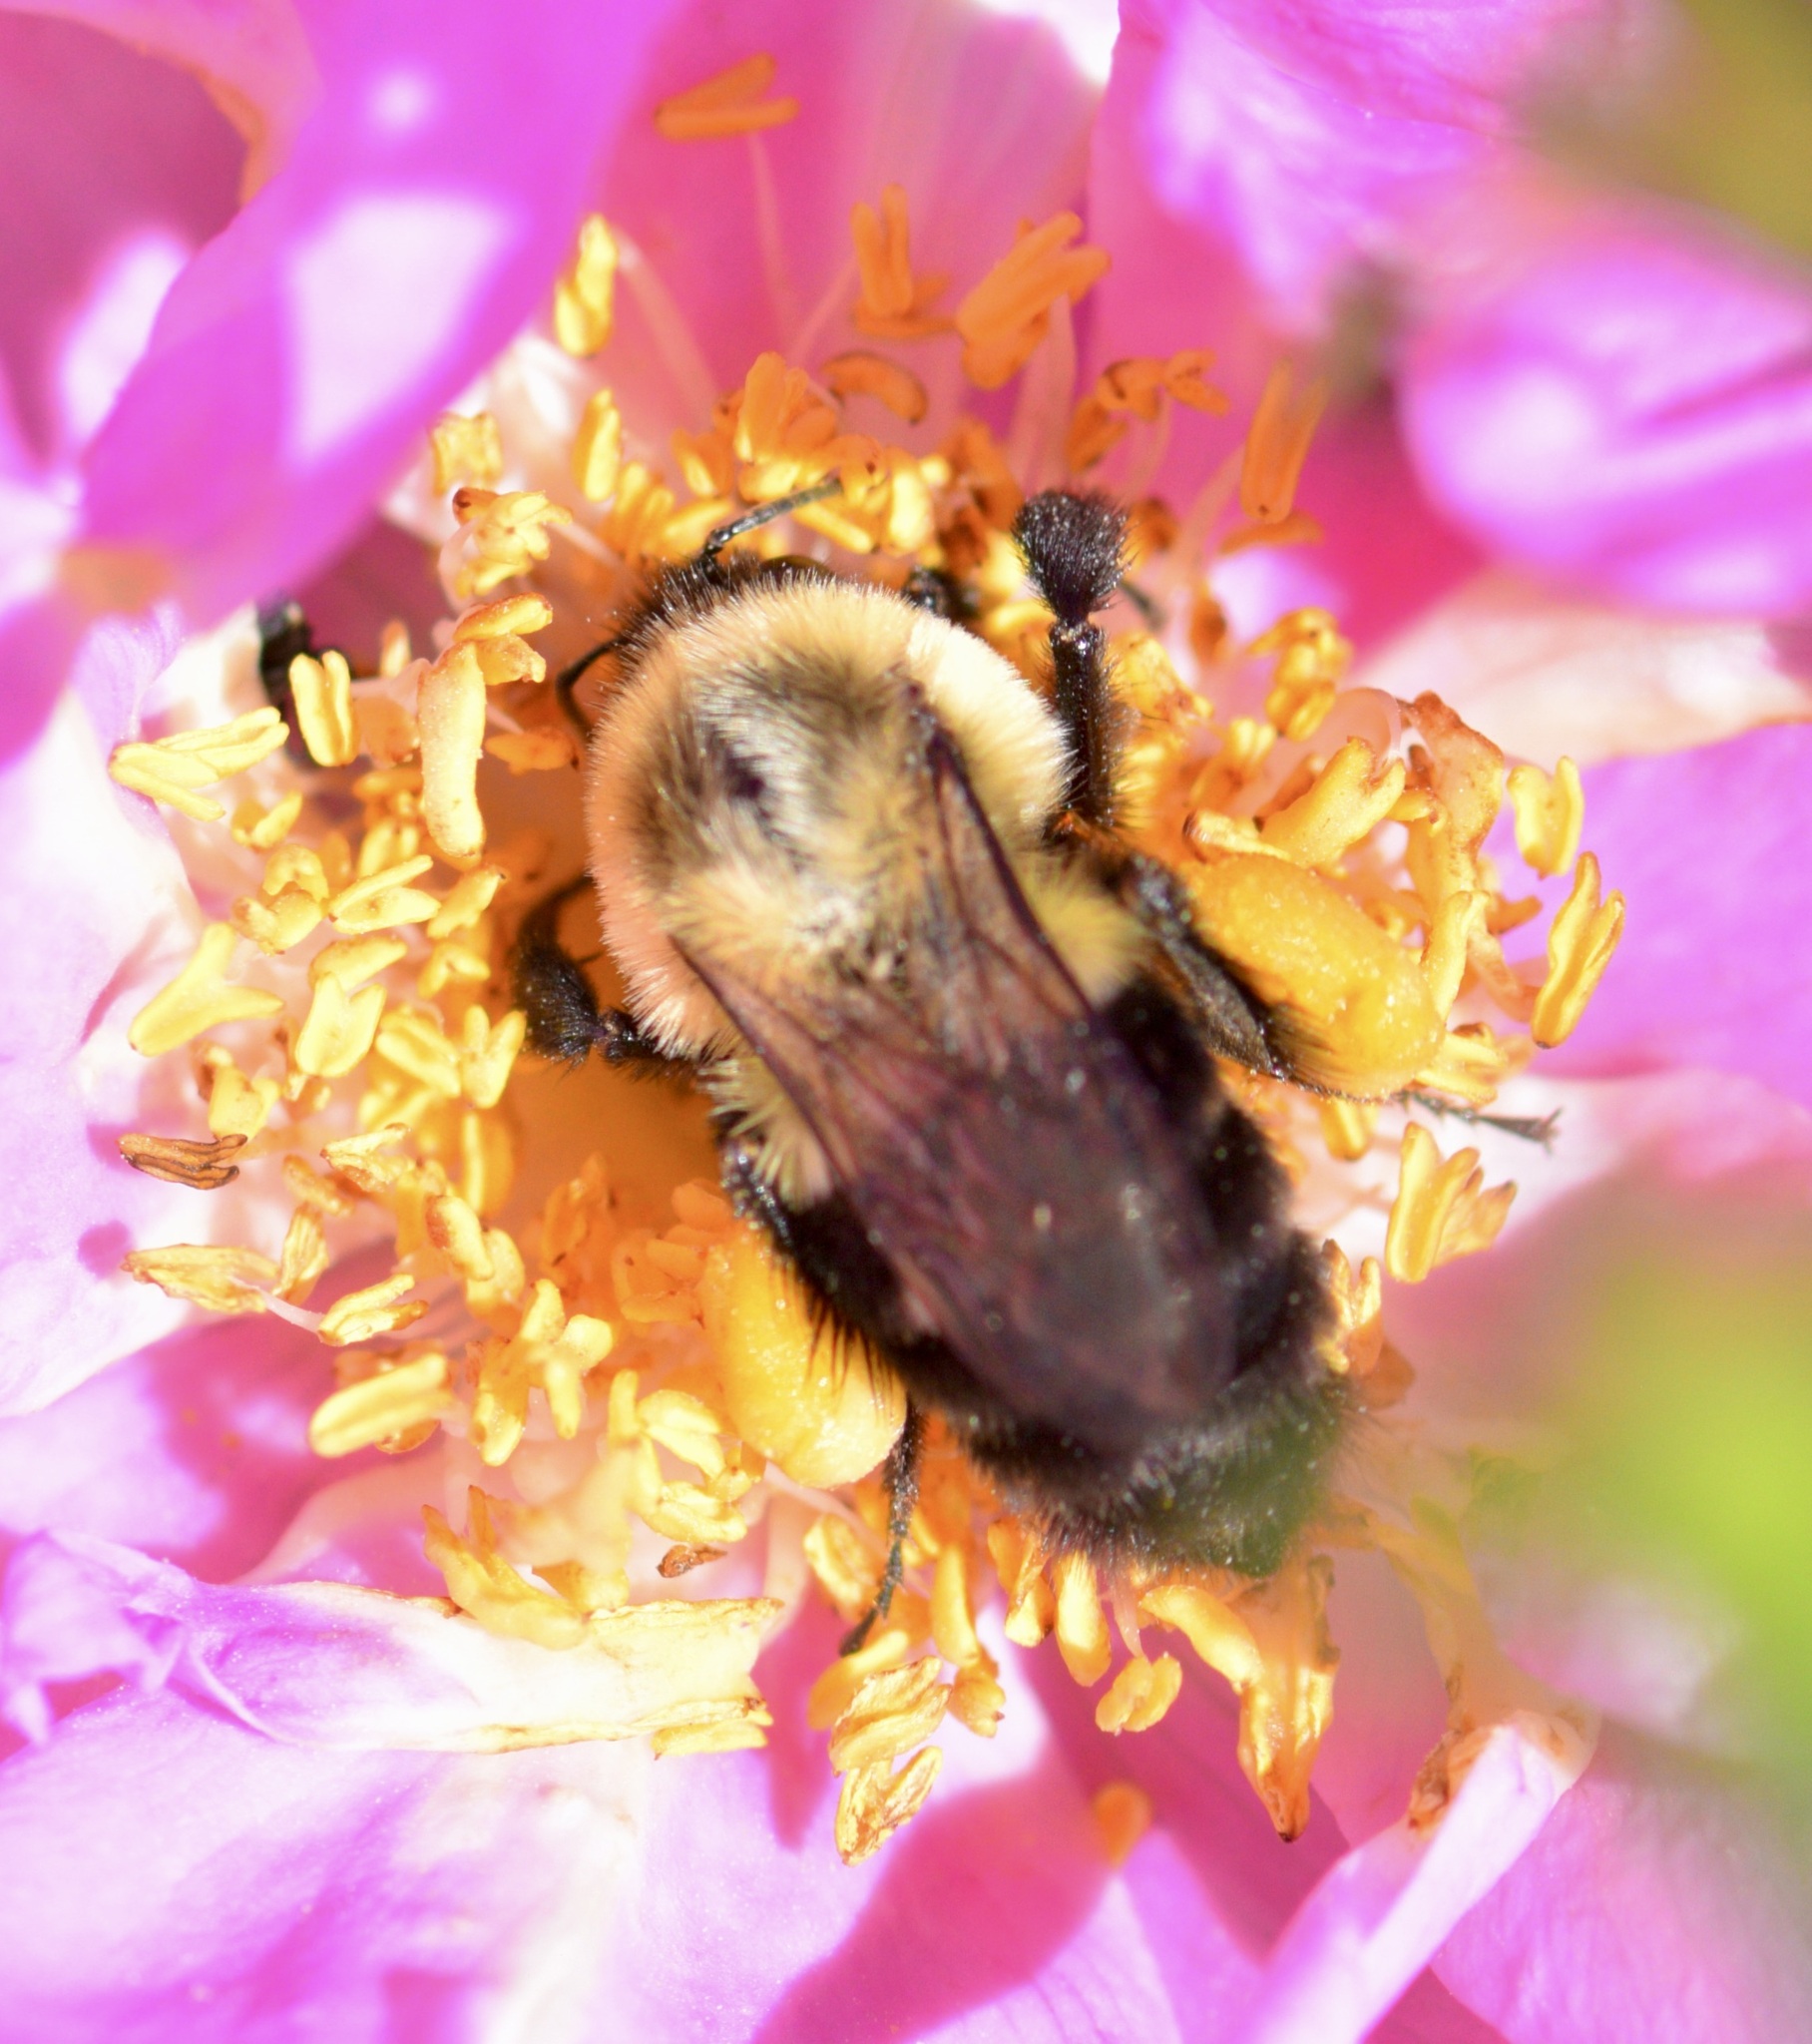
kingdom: Animalia
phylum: Arthropoda
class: Insecta
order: Hymenoptera
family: Apidae
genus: Bombus
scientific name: Bombus impatiens
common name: Common eastern bumble bee
